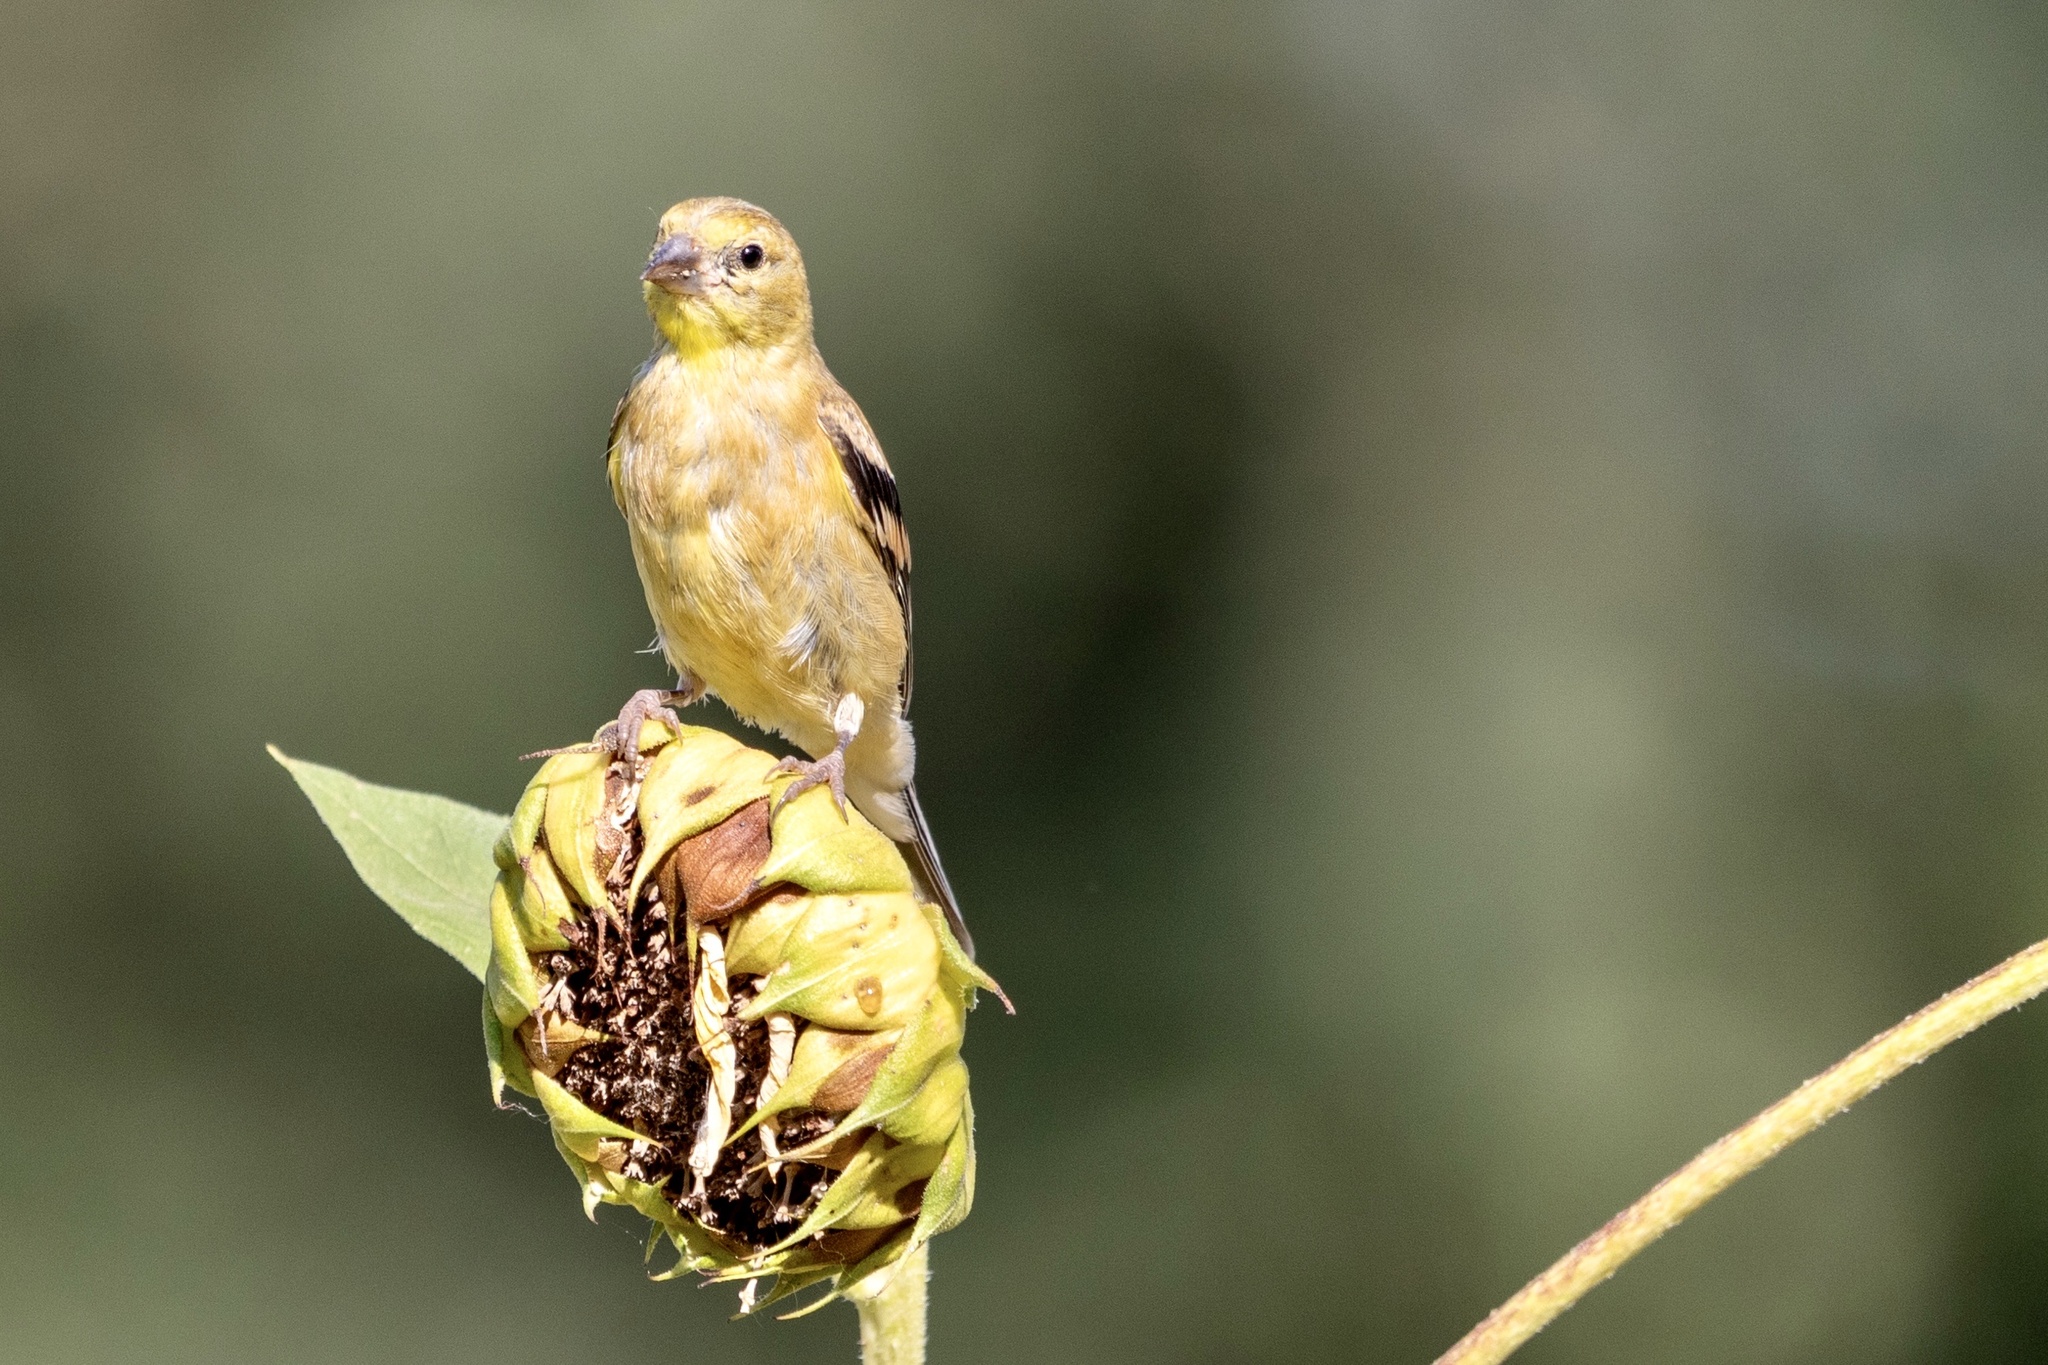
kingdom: Animalia
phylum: Chordata
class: Aves
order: Passeriformes
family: Fringillidae
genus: Spinus
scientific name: Spinus tristis
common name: American goldfinch
